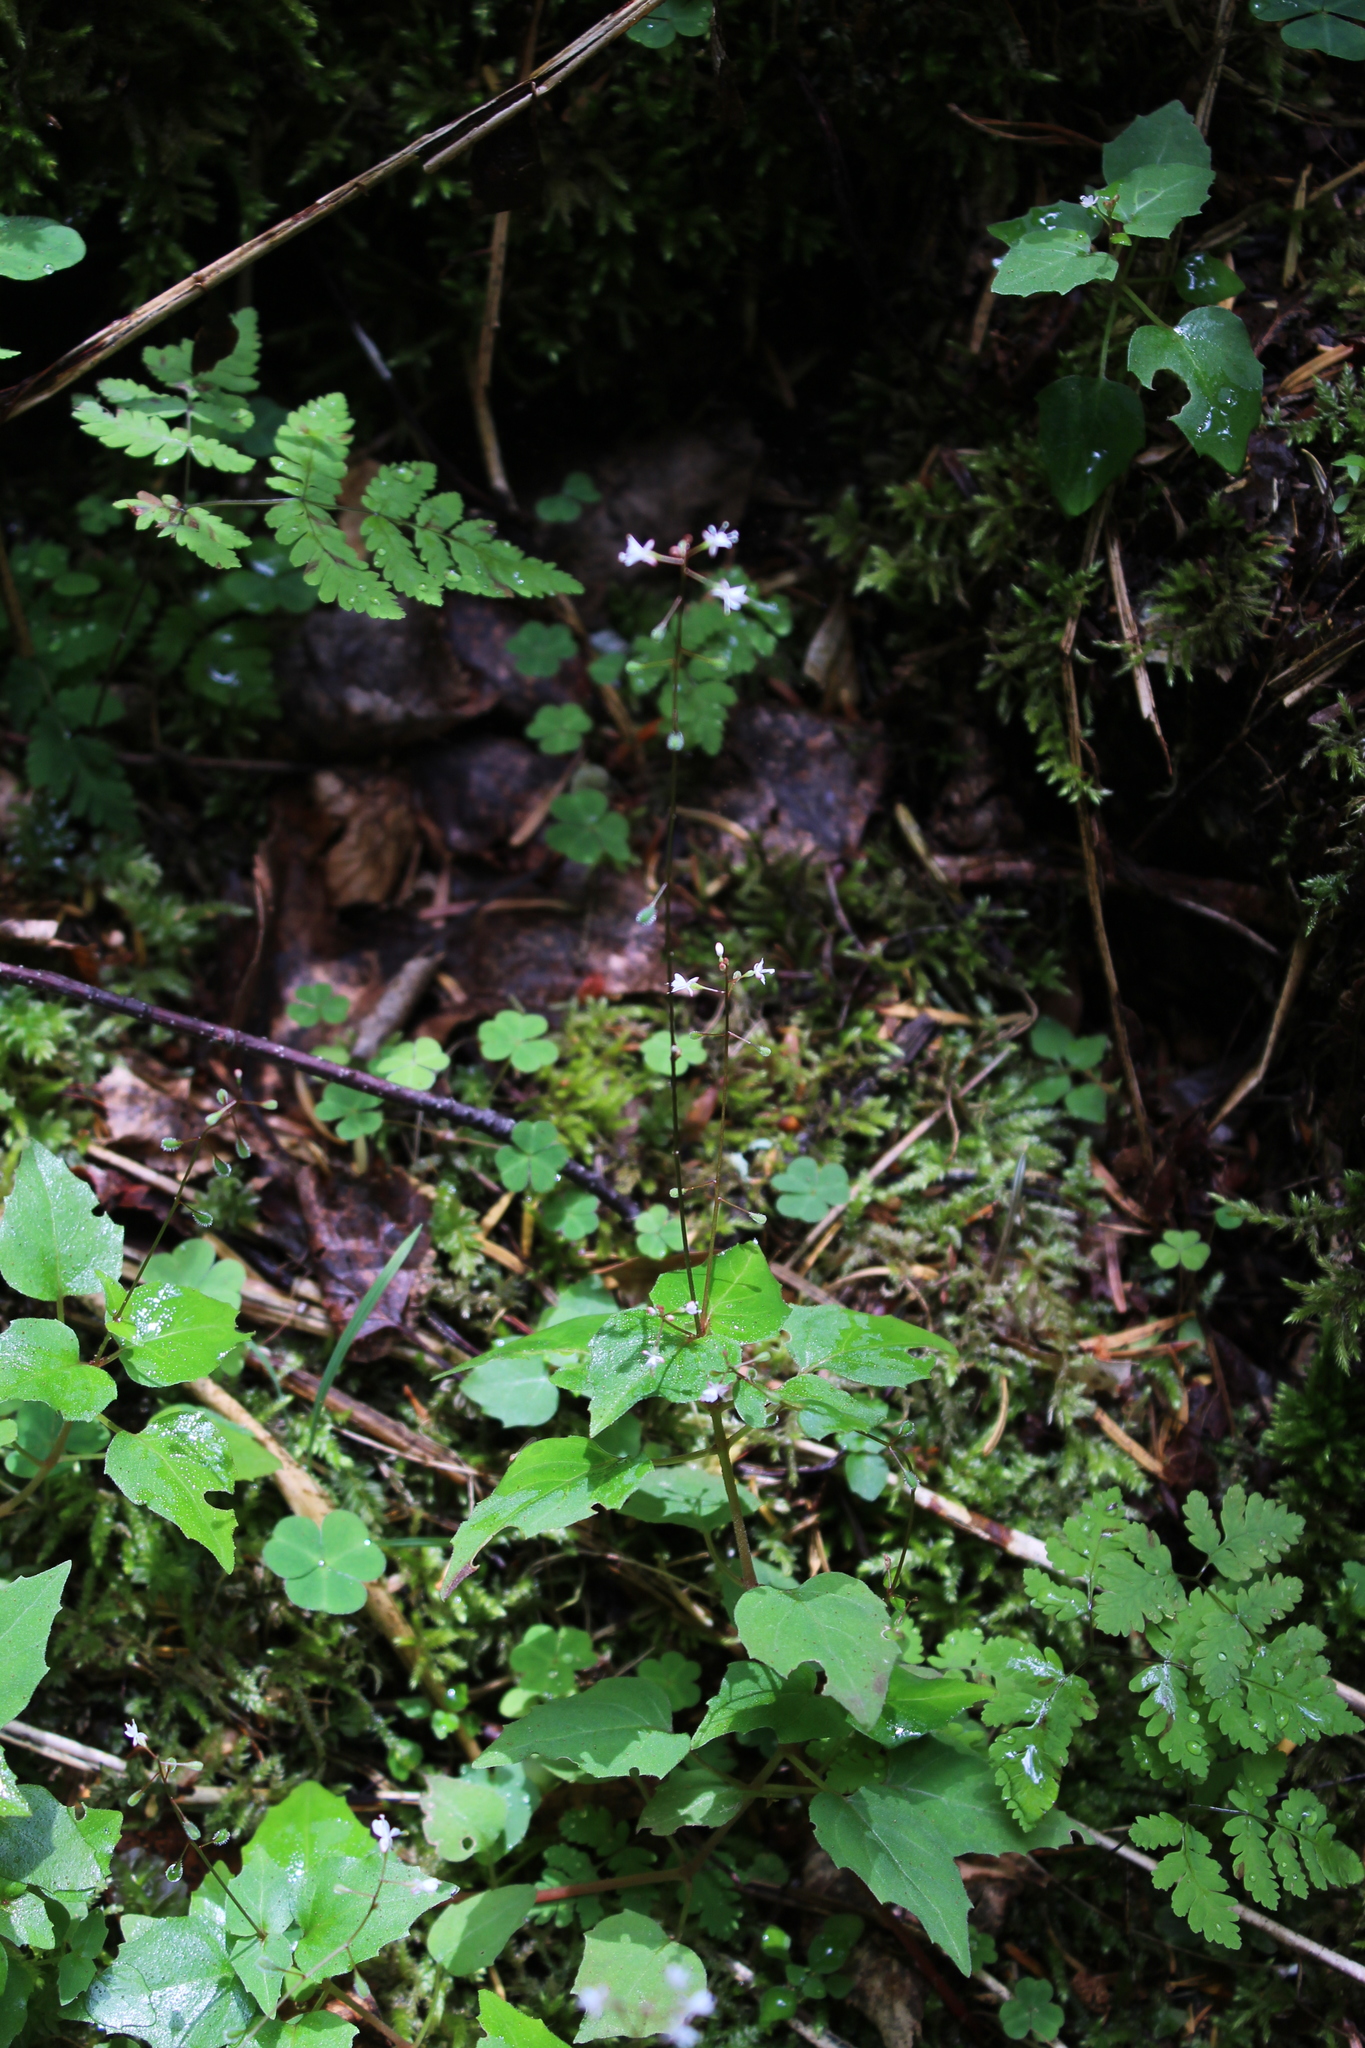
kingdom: Plantae
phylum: Tracheophyta
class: Magnoliopsida
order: Myrtales
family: Onagraceae
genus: Circaea
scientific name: Circaea alpina
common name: Alpine enchanter's-nightshade
